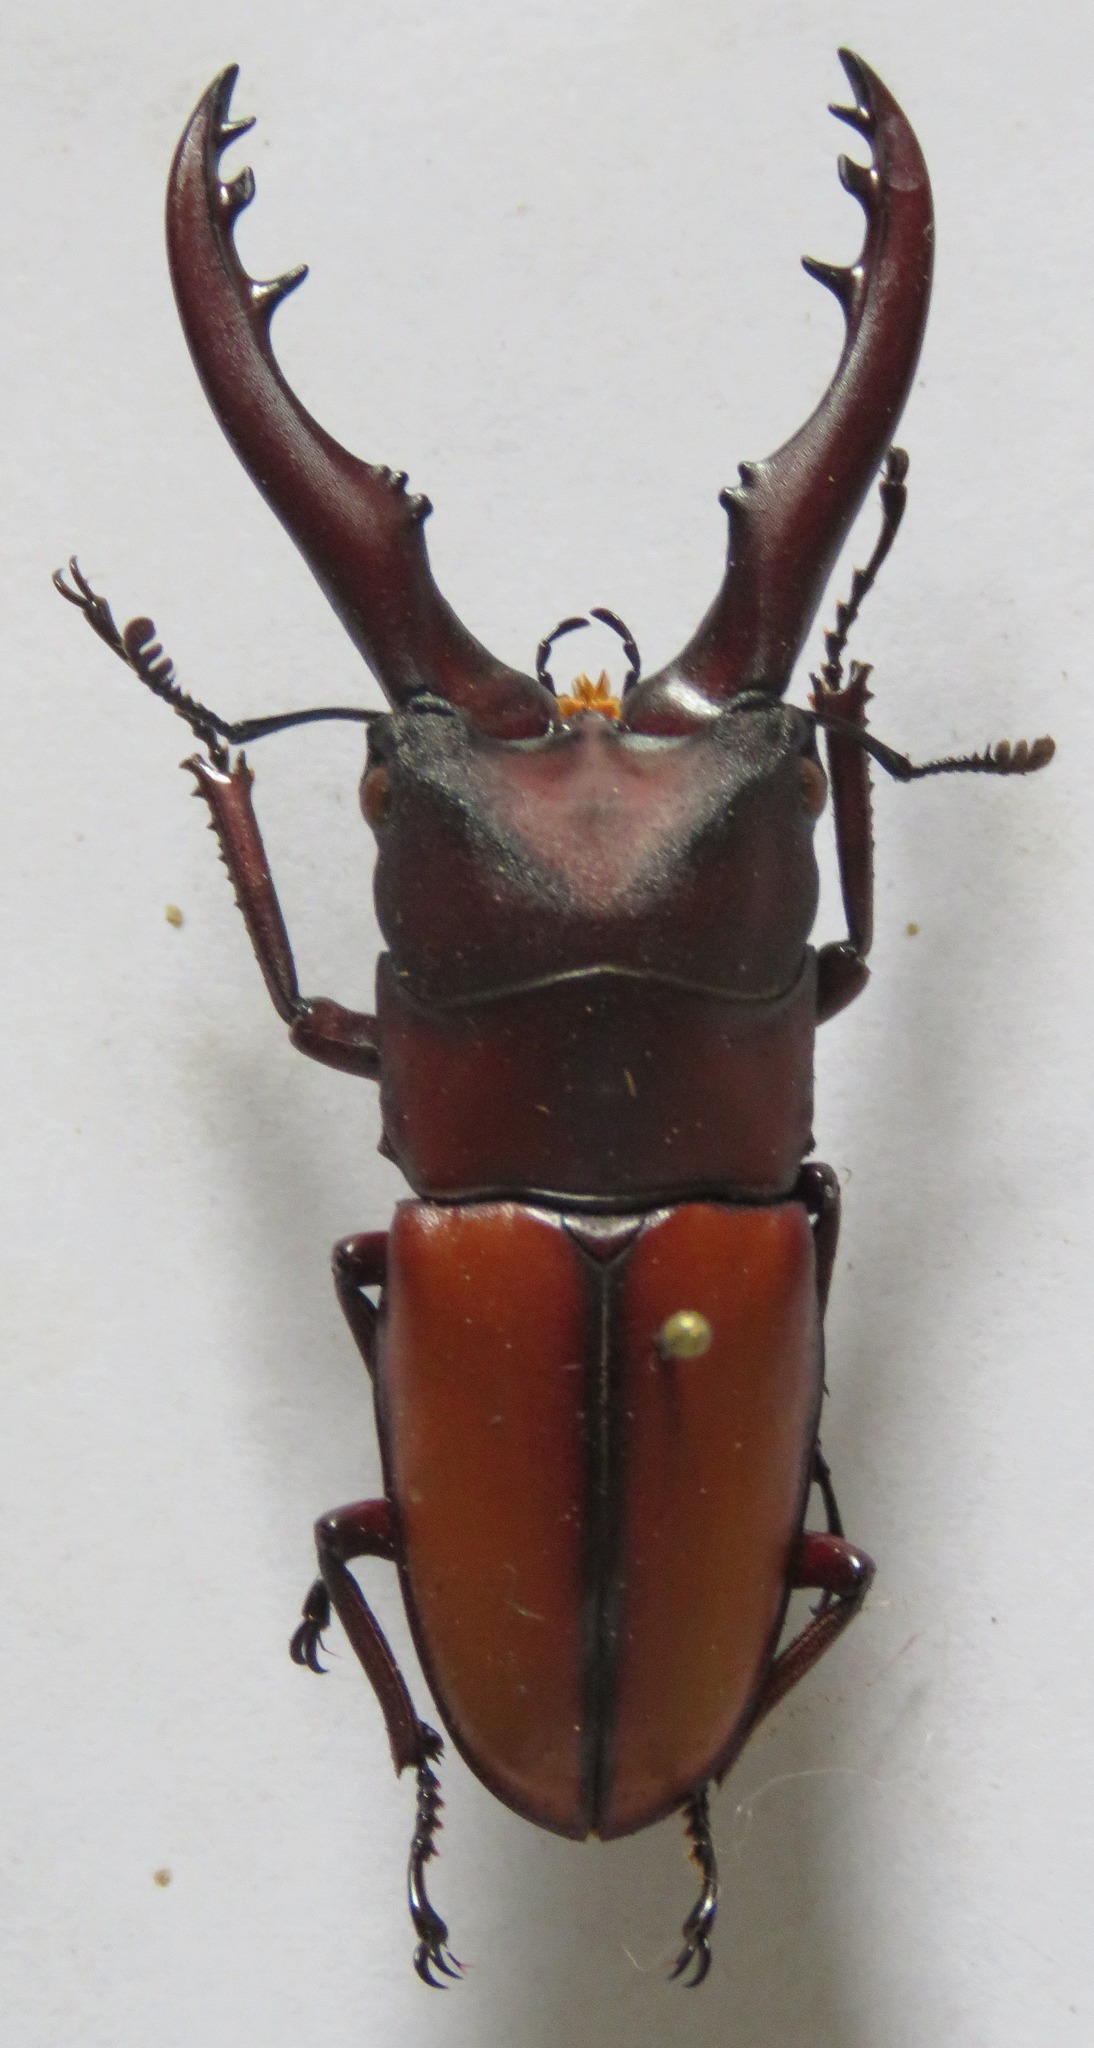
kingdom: Animalia
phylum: Arthropoda
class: Insecta
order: Coleoptera
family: Lucanidae
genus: Prosopocoilus
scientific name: Prosopocoilus mohnikei
